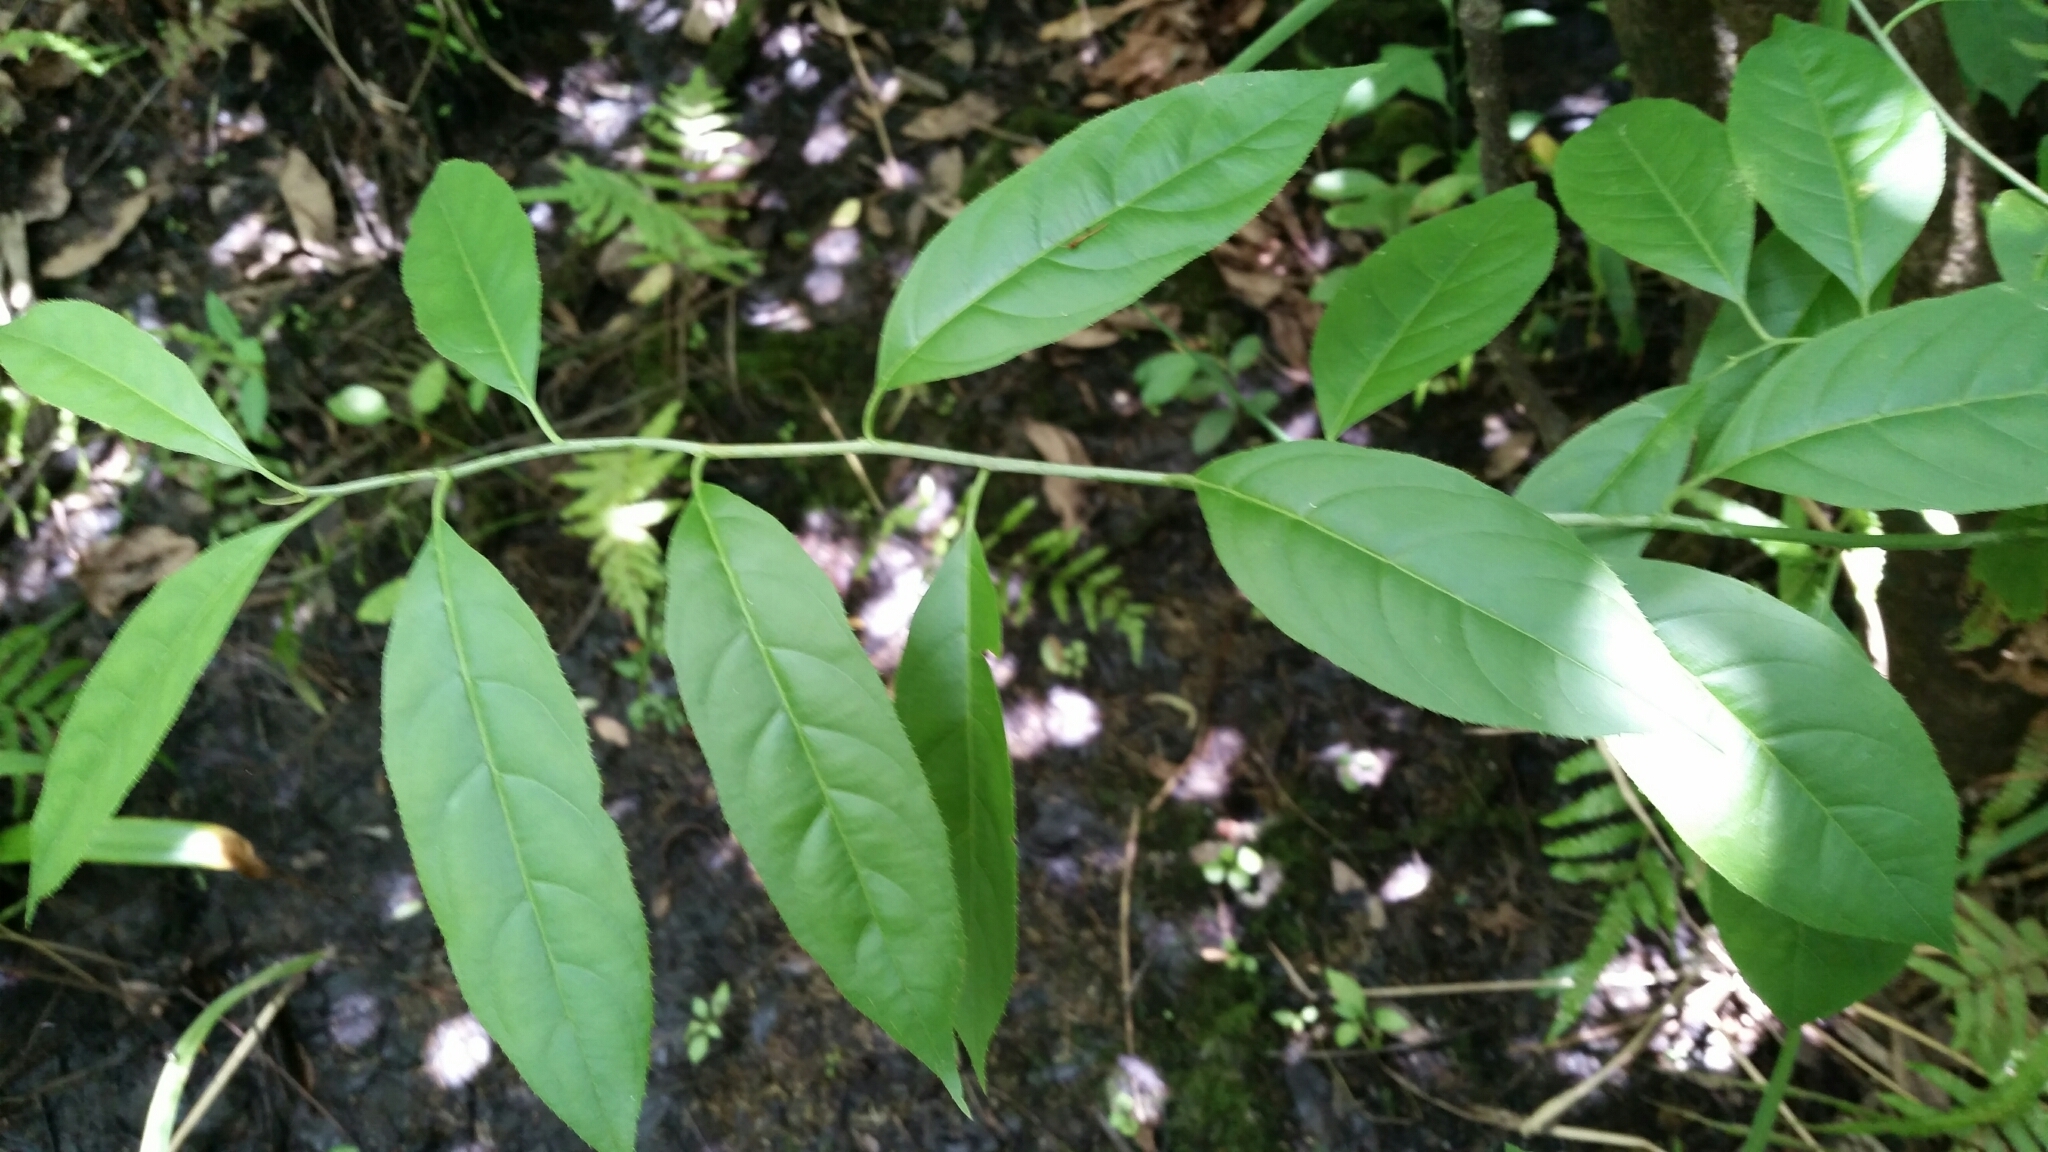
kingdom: Plantae
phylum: Tracheophyta
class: Magnoliopsida
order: Saxifragales
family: Iteaceae
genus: Itea
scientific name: Itea virginica
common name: Sweetspire
